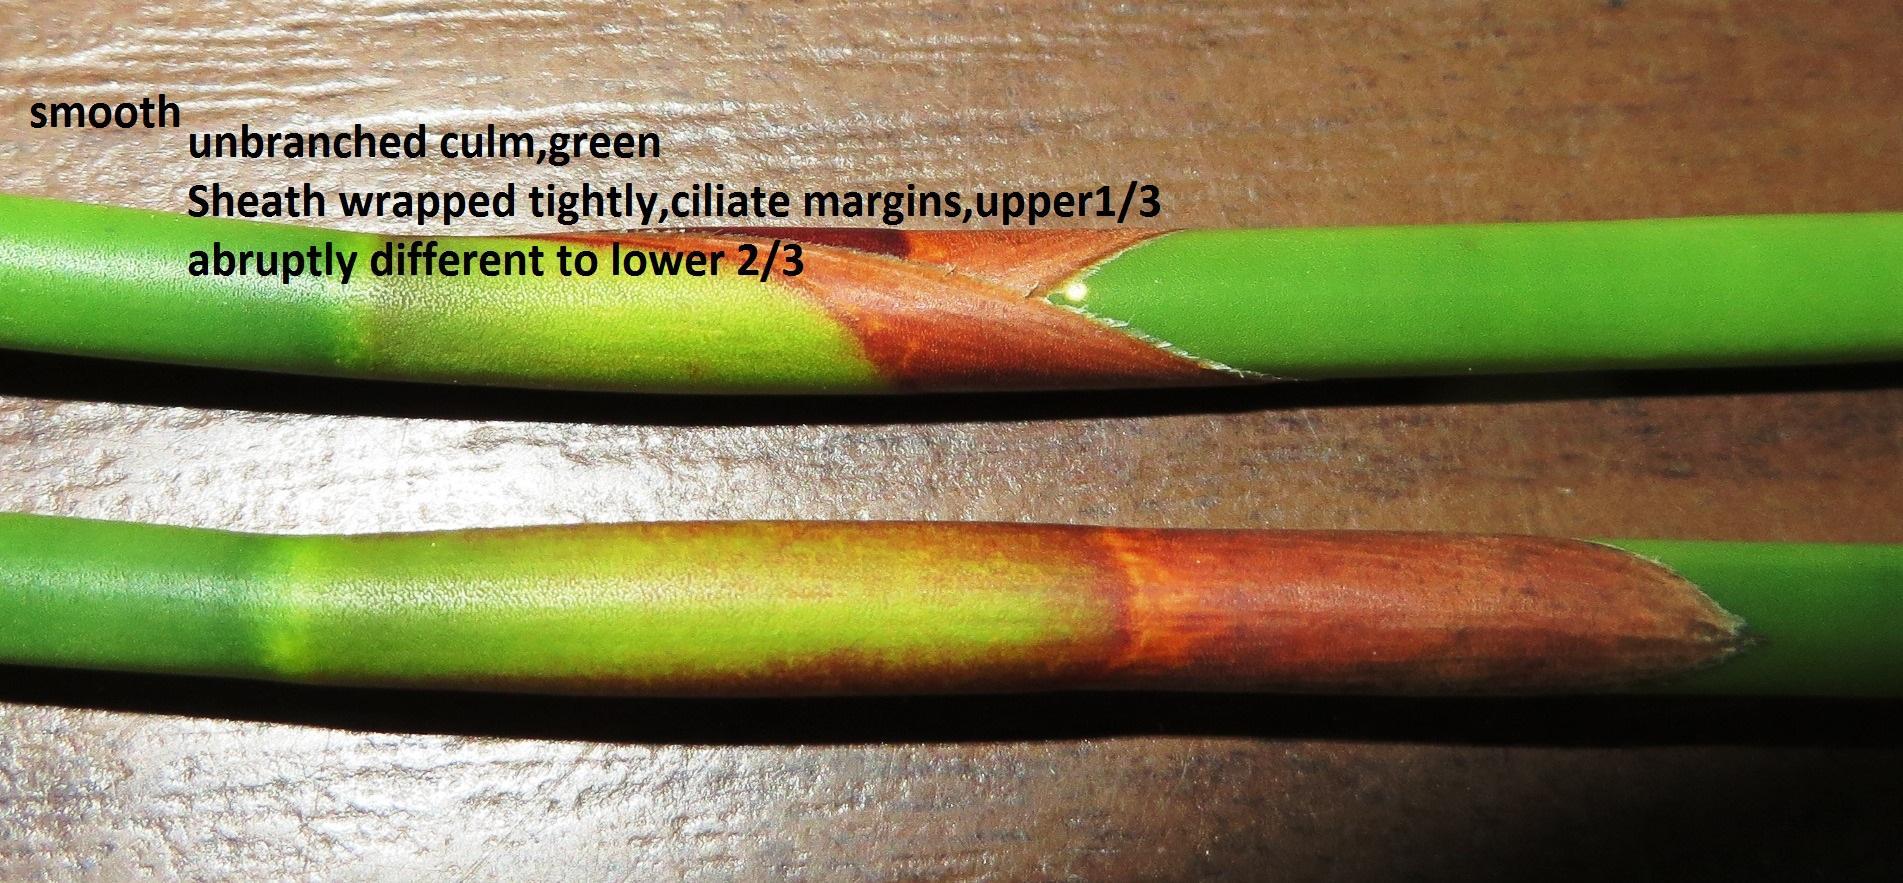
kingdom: Plantae
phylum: Tracheophyta
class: Liliopsida
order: Poales
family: Restionaceae
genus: Ceratocaryum
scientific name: Ceratocaryum caespitosum
